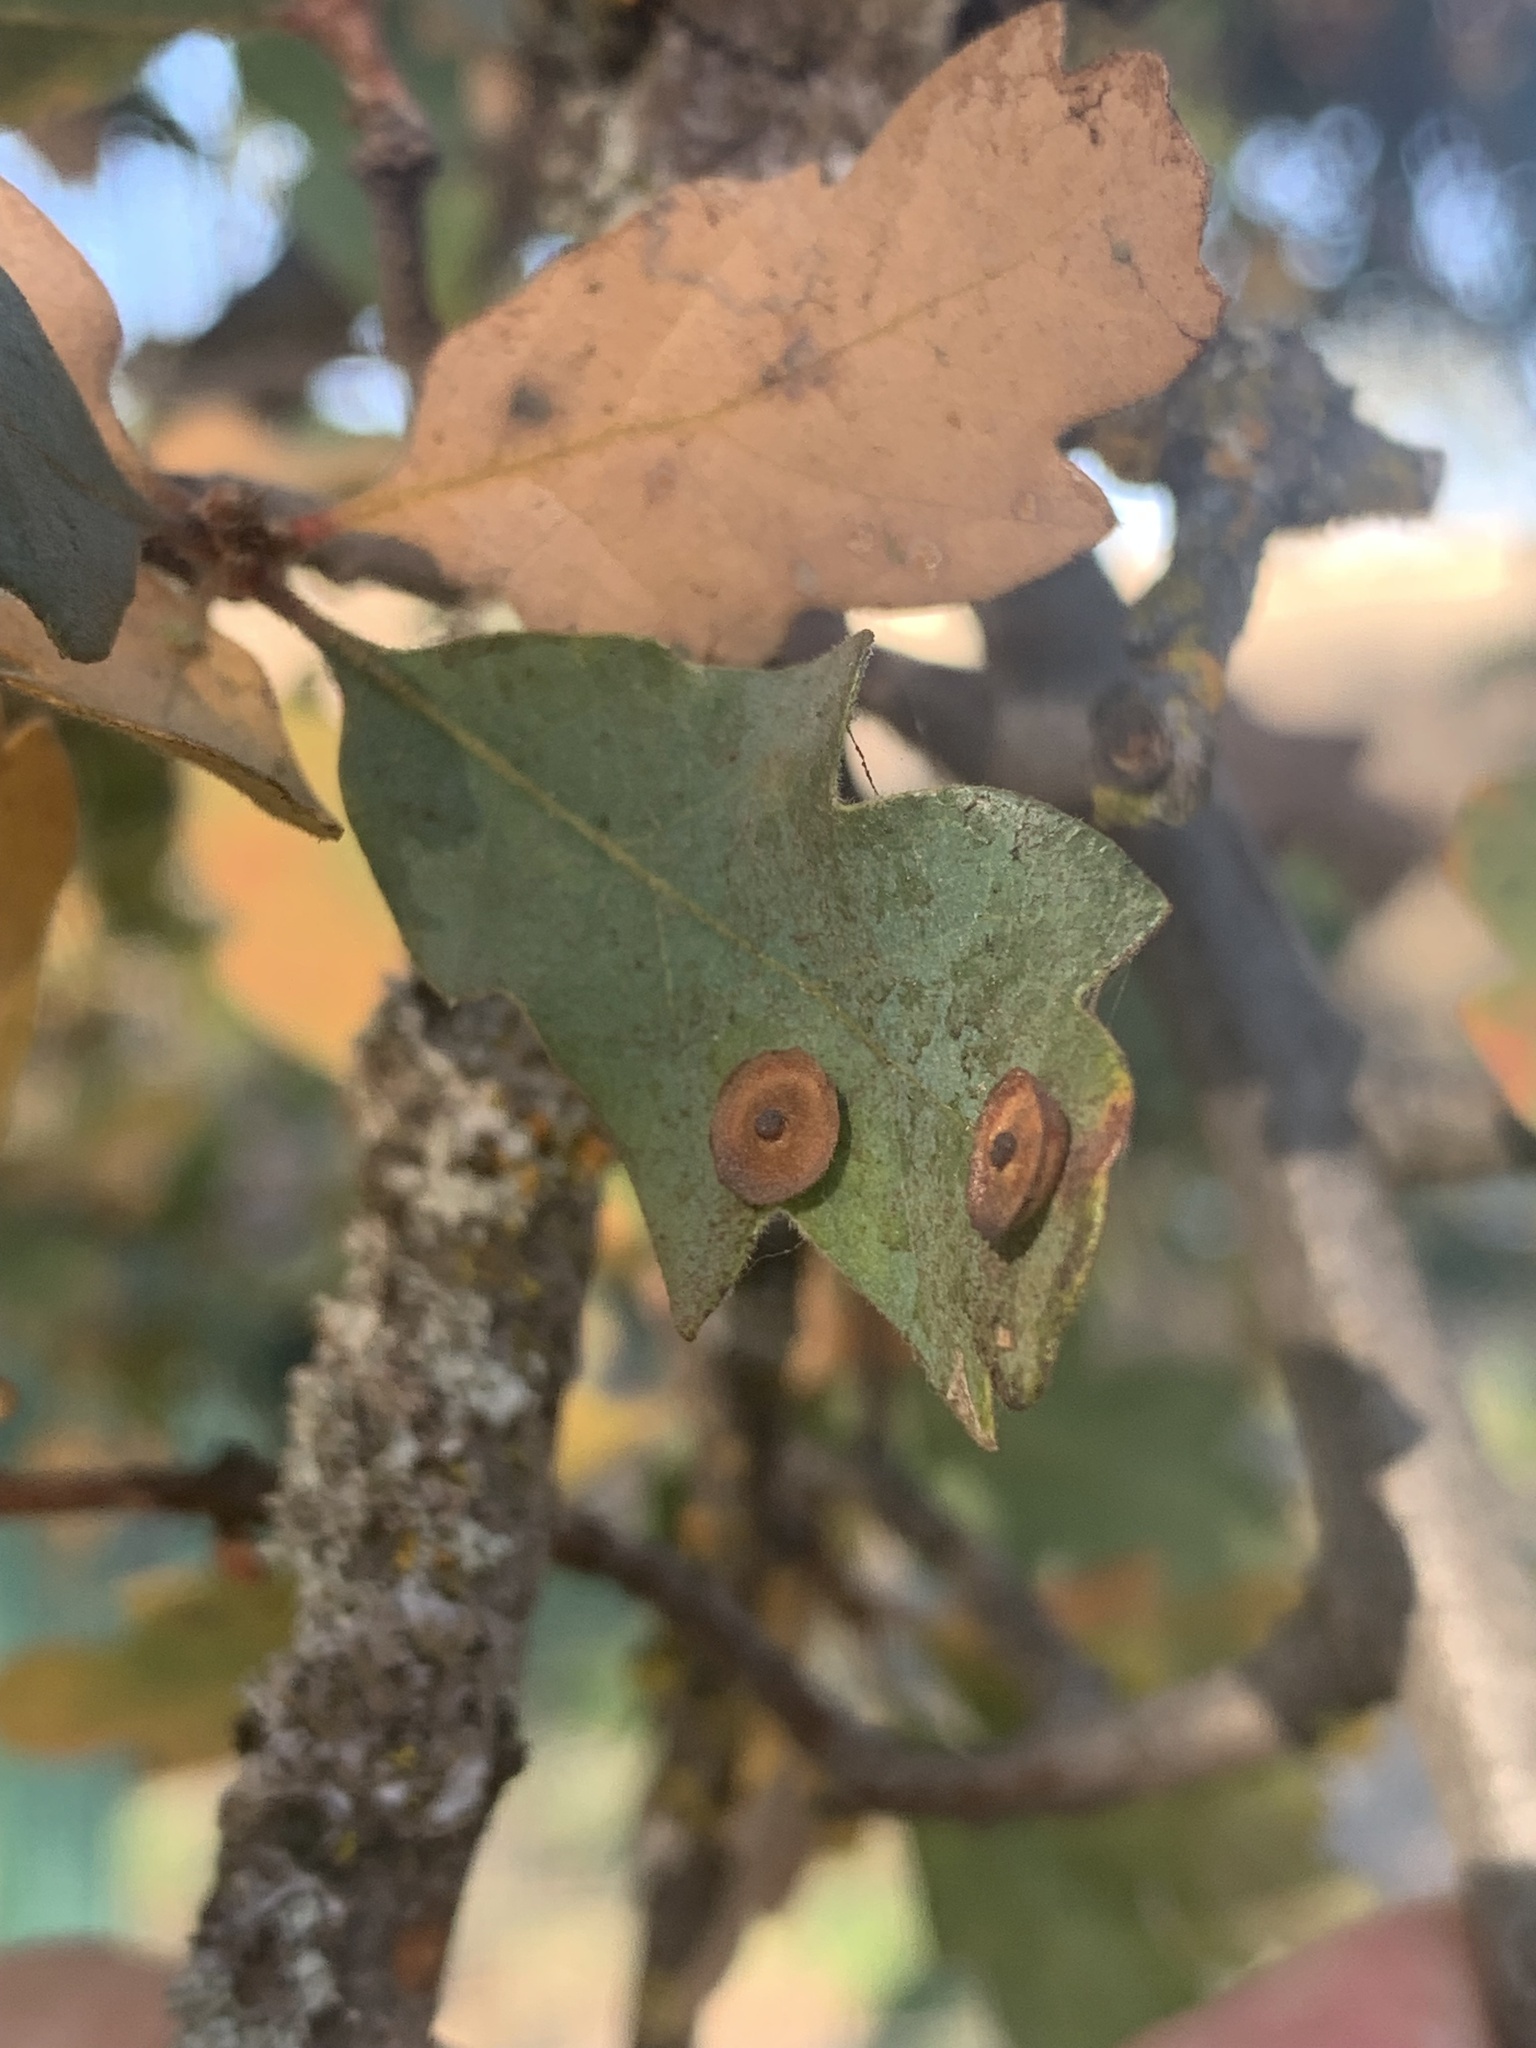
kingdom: Animalia
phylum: Arthropoda
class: Insecta
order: Hymenoptera
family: Cynipidae
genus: Andricus
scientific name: Andricus
